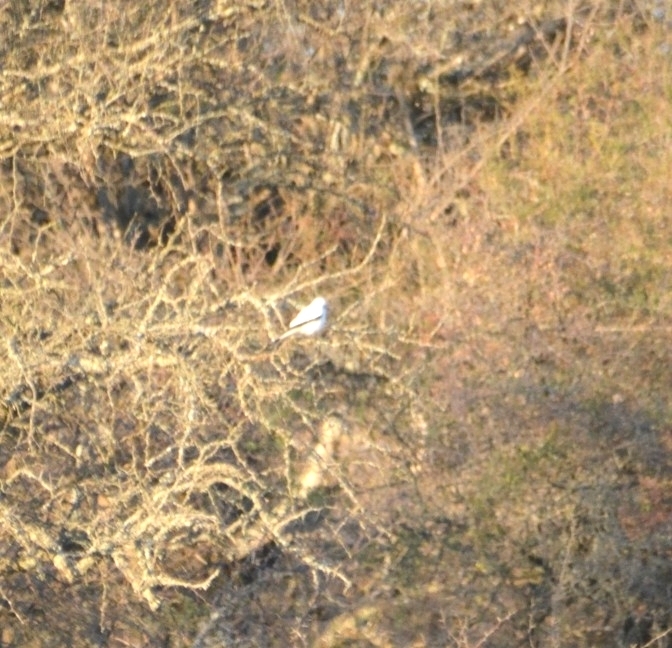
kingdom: Animalia
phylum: Chordata
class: Aves
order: Passeriformes
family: Tyrannidae
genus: Xolmis
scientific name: Xolmis irupero
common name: White monjita
